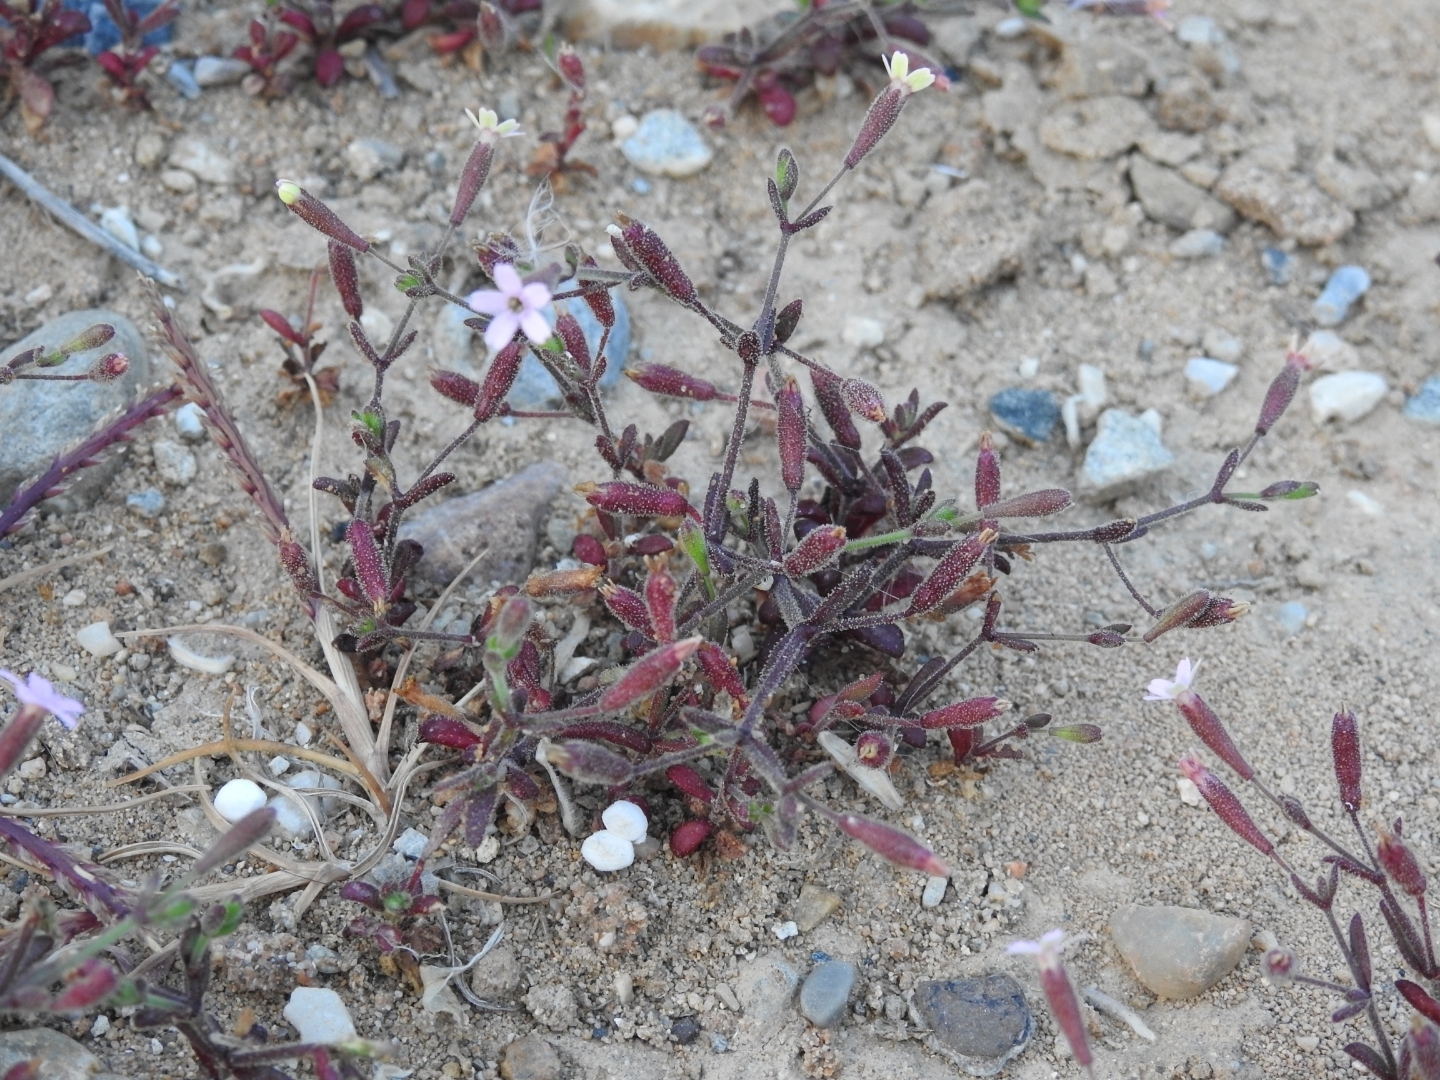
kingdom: Plantae
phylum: Tracheophyta
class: Magnoliopsida
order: Caryophyllales
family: Caryophyllaceae
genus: Silene
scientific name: Silene sedoides
